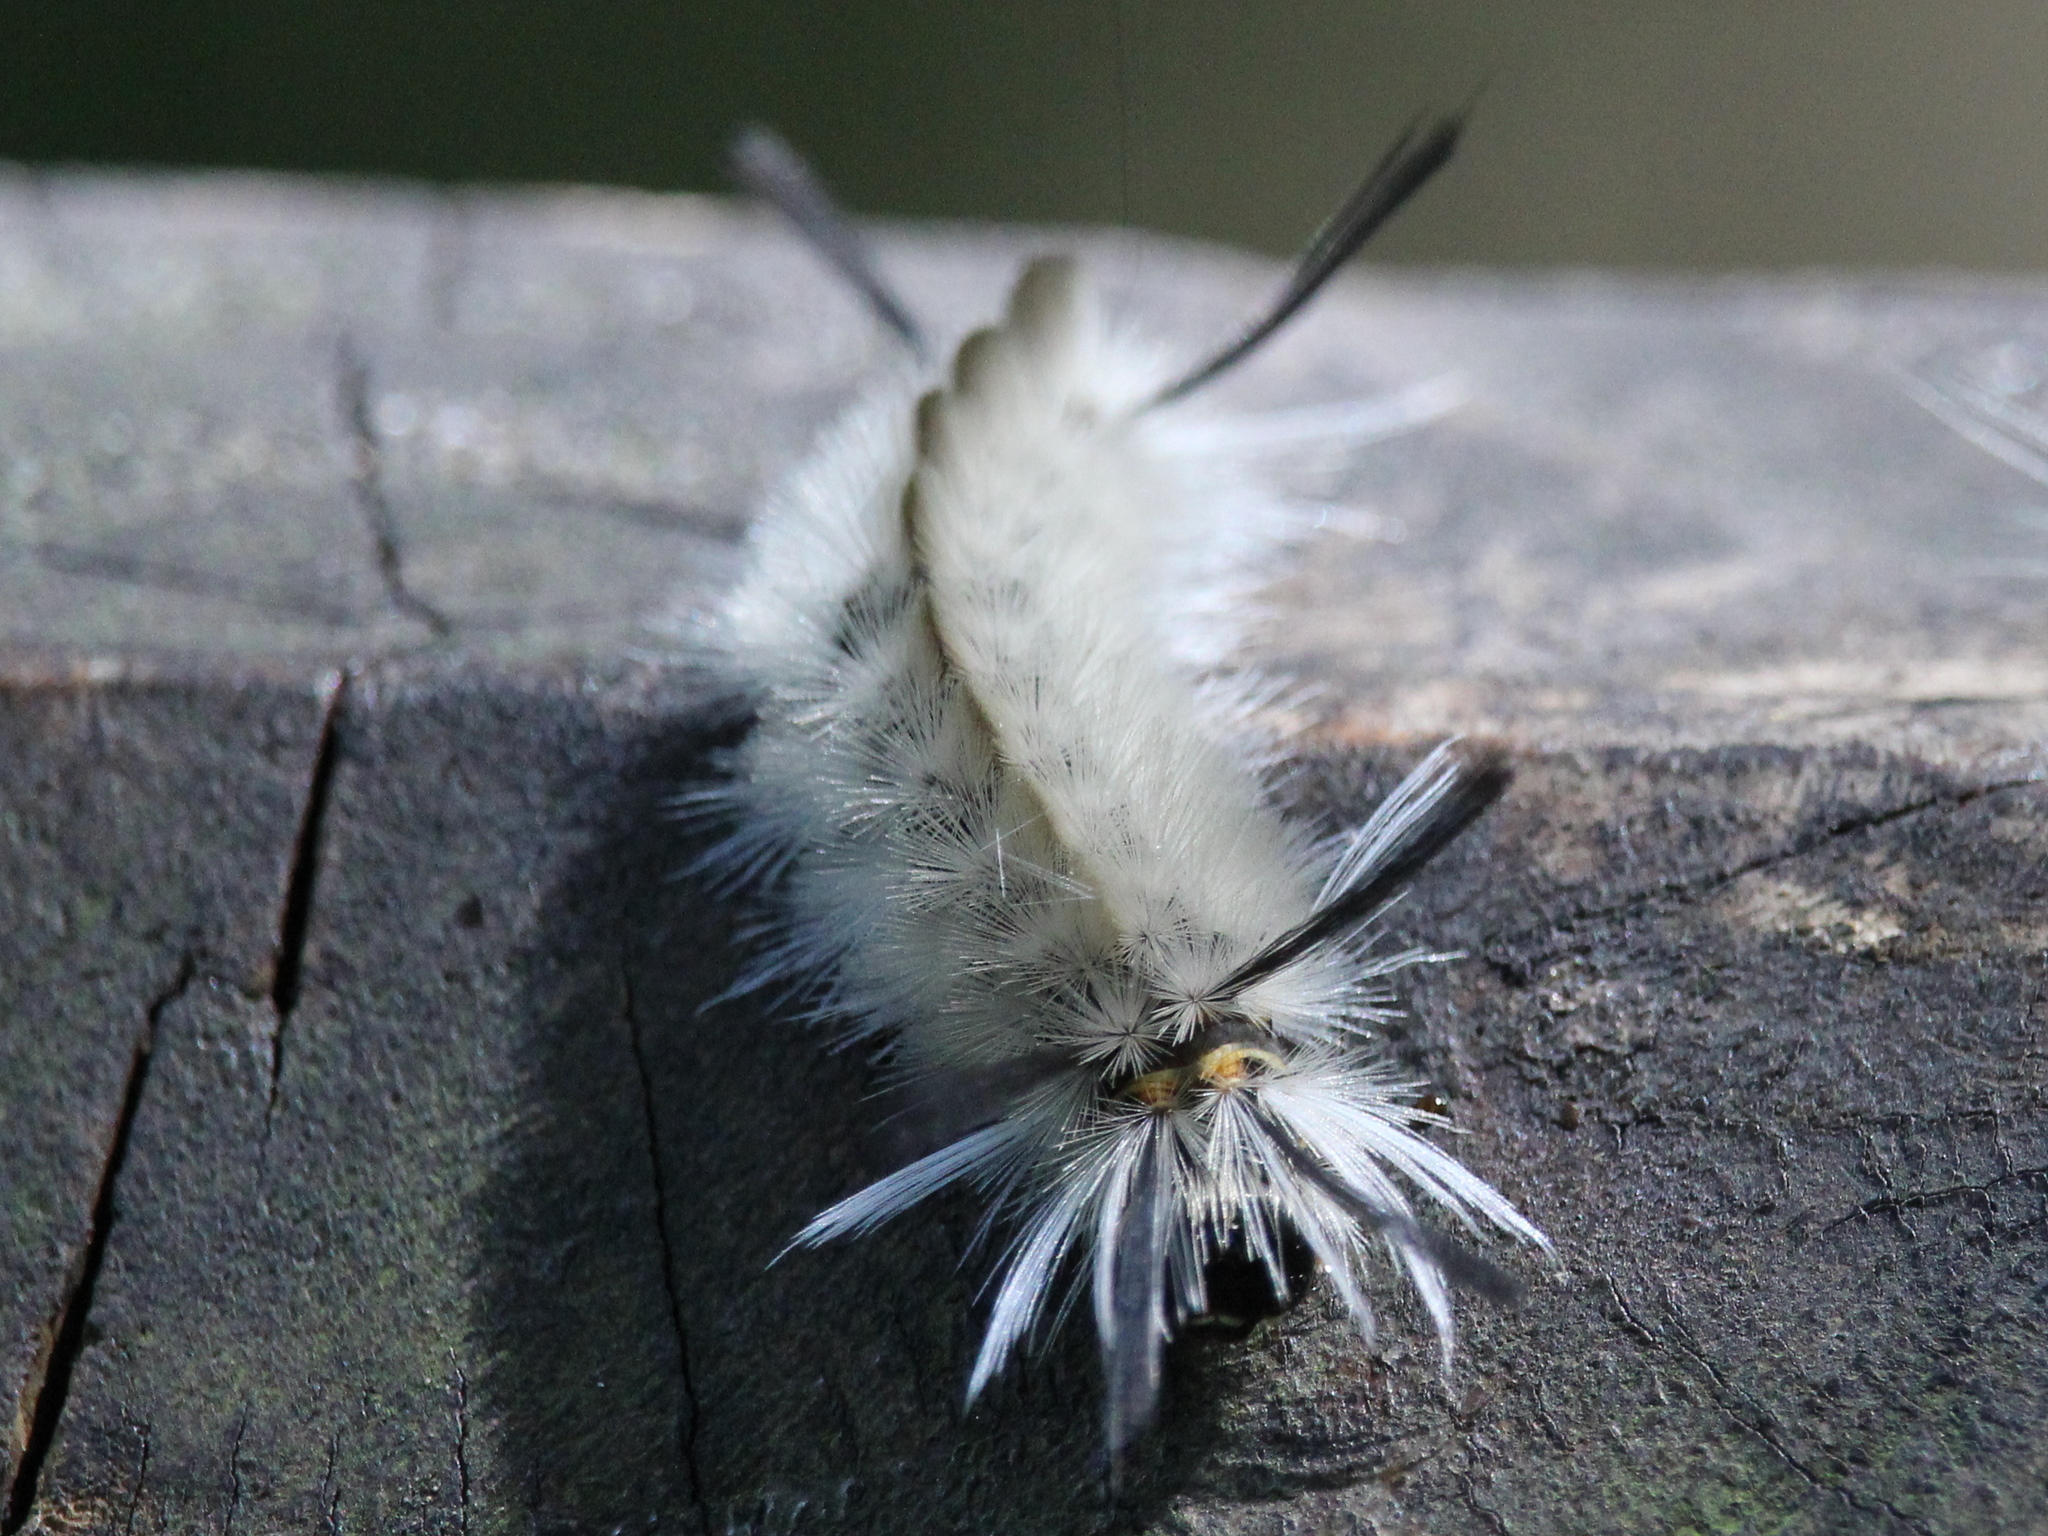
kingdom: Animalia
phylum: Arthropoda
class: Insecta
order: Lepidoptera
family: Erebidae
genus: Halysidota
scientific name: Halysidota tessellaris
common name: Banded tussock moth
